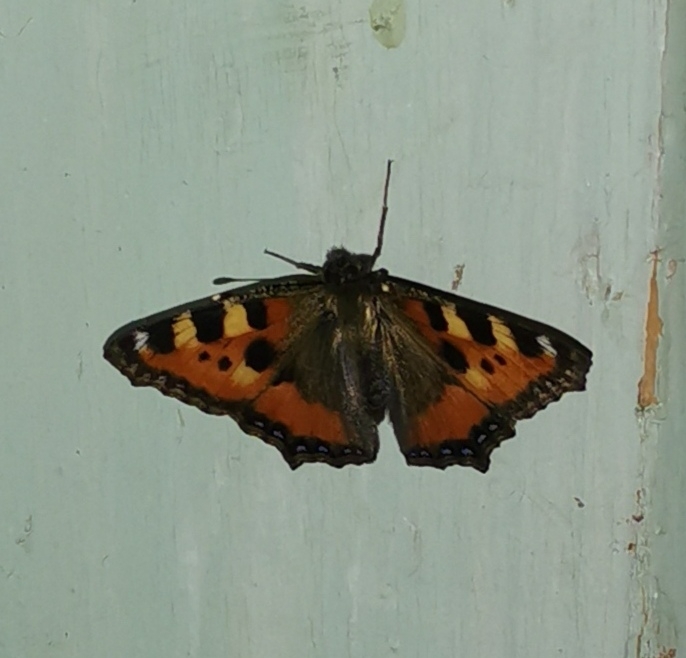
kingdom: Animalia
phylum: Arthropoda
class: Insecta
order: Lepidoptera
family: Nymphalidae
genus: Aglais
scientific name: Aglais urticae
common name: Small tortoiseshell
